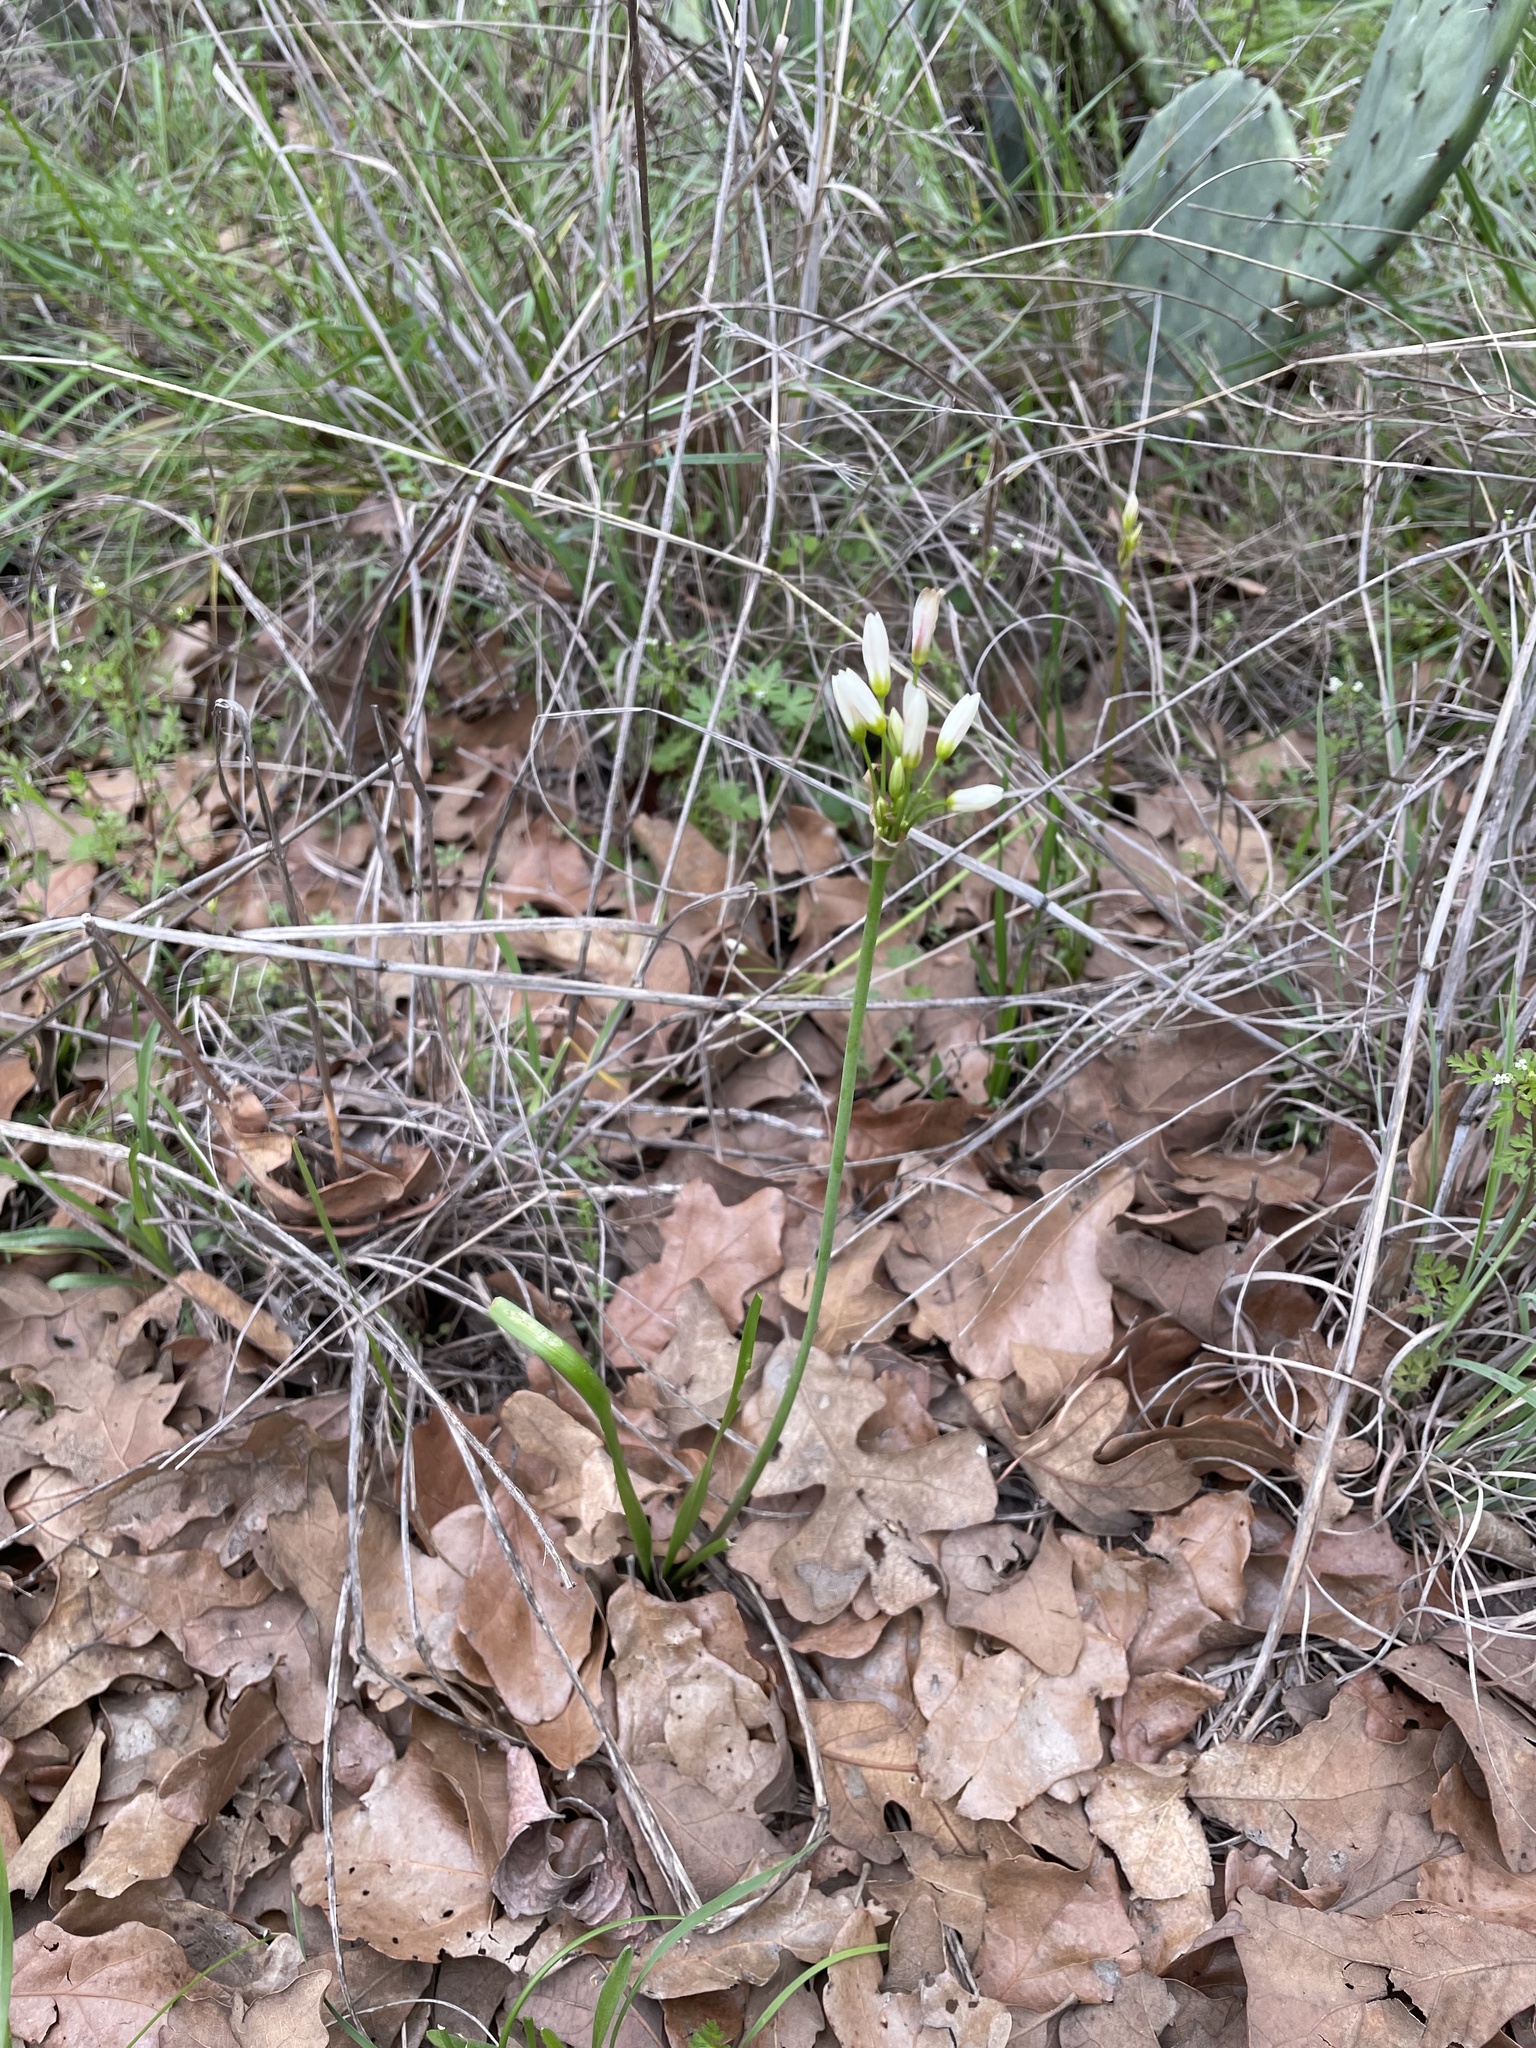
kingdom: Plantae
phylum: Tracheophyta
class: Liliopsida
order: Asparagales
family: Amaryllidaceae
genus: Nothoscordum
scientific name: Nothoscordum bivalve
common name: Crow-poison
